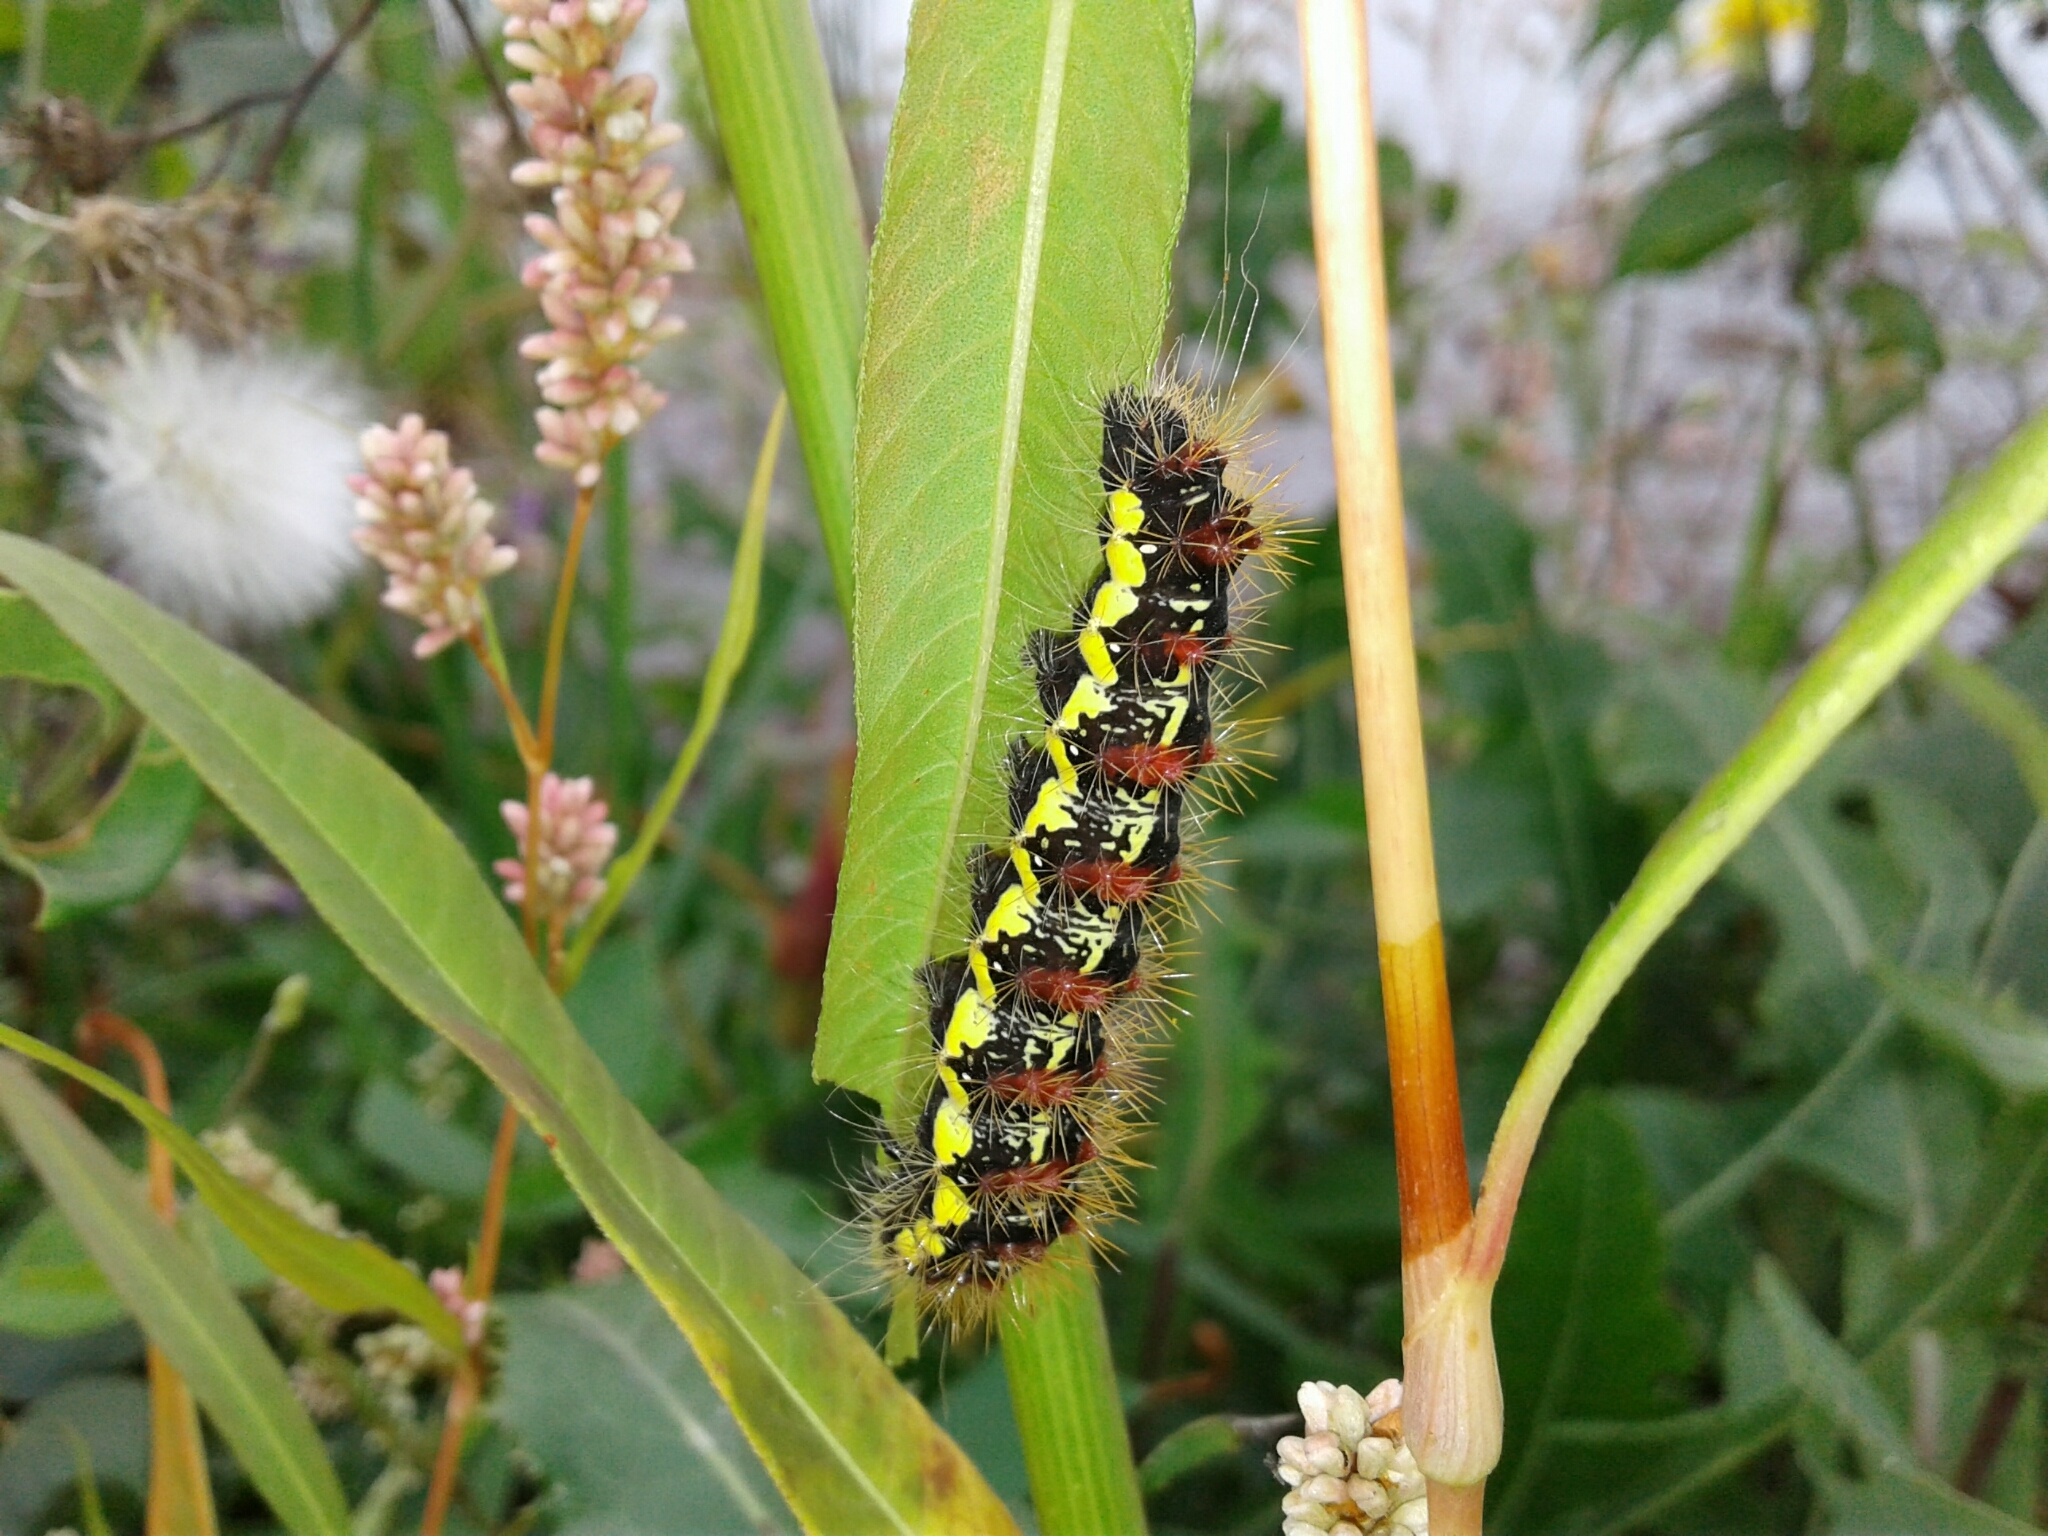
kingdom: Animalia
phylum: Arthropoda
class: Insecta
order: Lepidoptera
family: Noctuidae
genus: Acronicta
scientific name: Acronicta oblinita
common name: Smeared dagger
